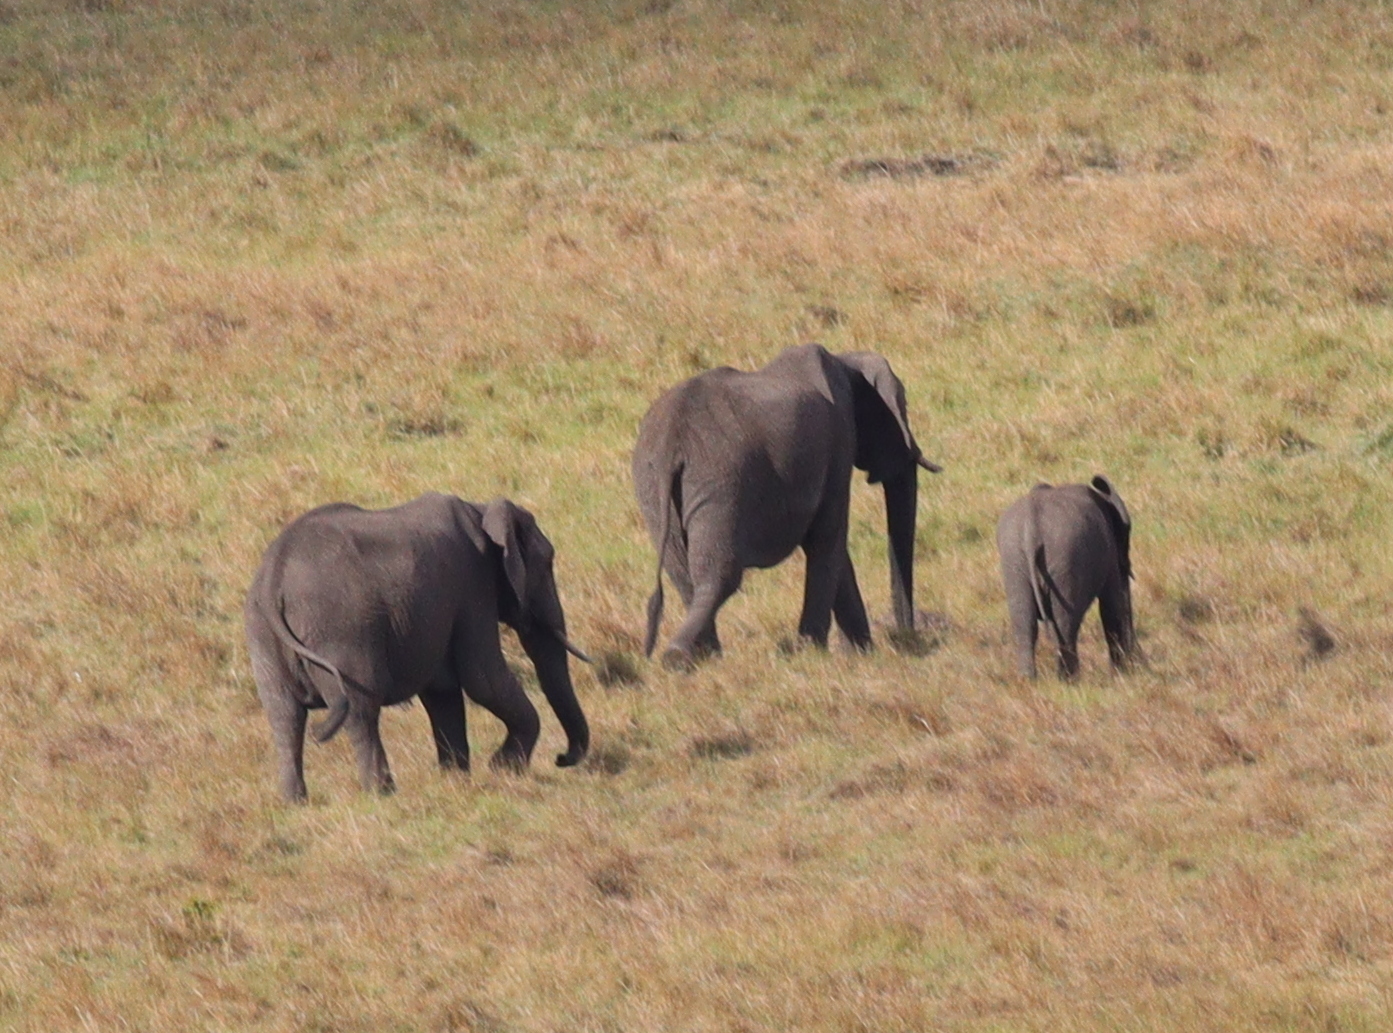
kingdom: Animalia
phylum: Chordata
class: Mammalia
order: Proboscidea
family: Elephantidae
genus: Loxodonta
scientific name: Loxodonta africana
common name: African elephant
